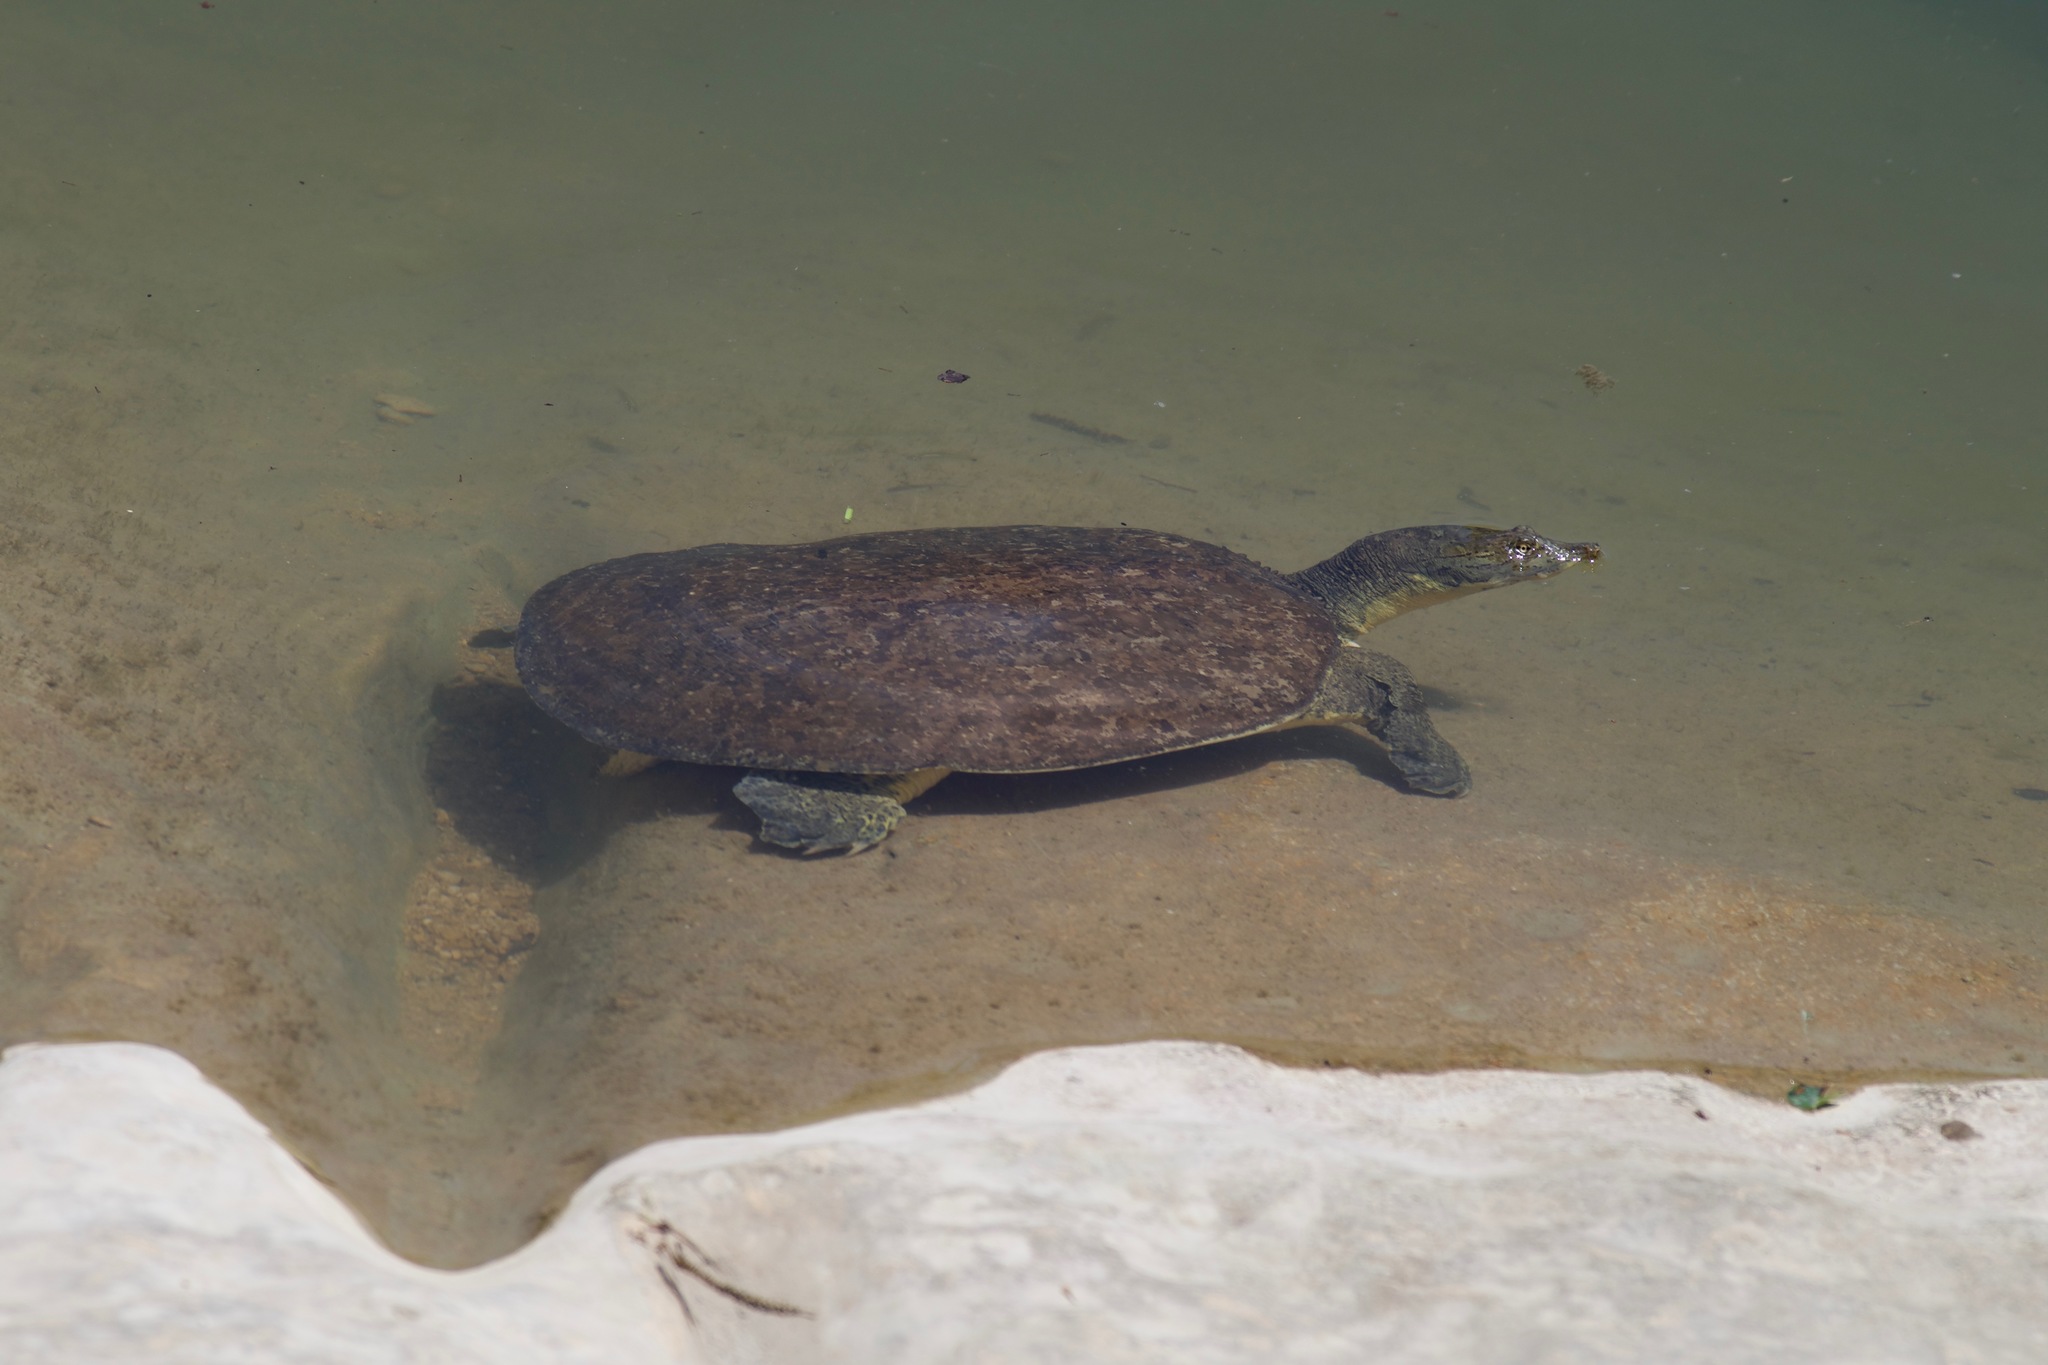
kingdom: Animalia
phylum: Chordata
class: Testudines
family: Trionychidae
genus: Apalone
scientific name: Apalone spinifera
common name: Spiny softshell turtle
